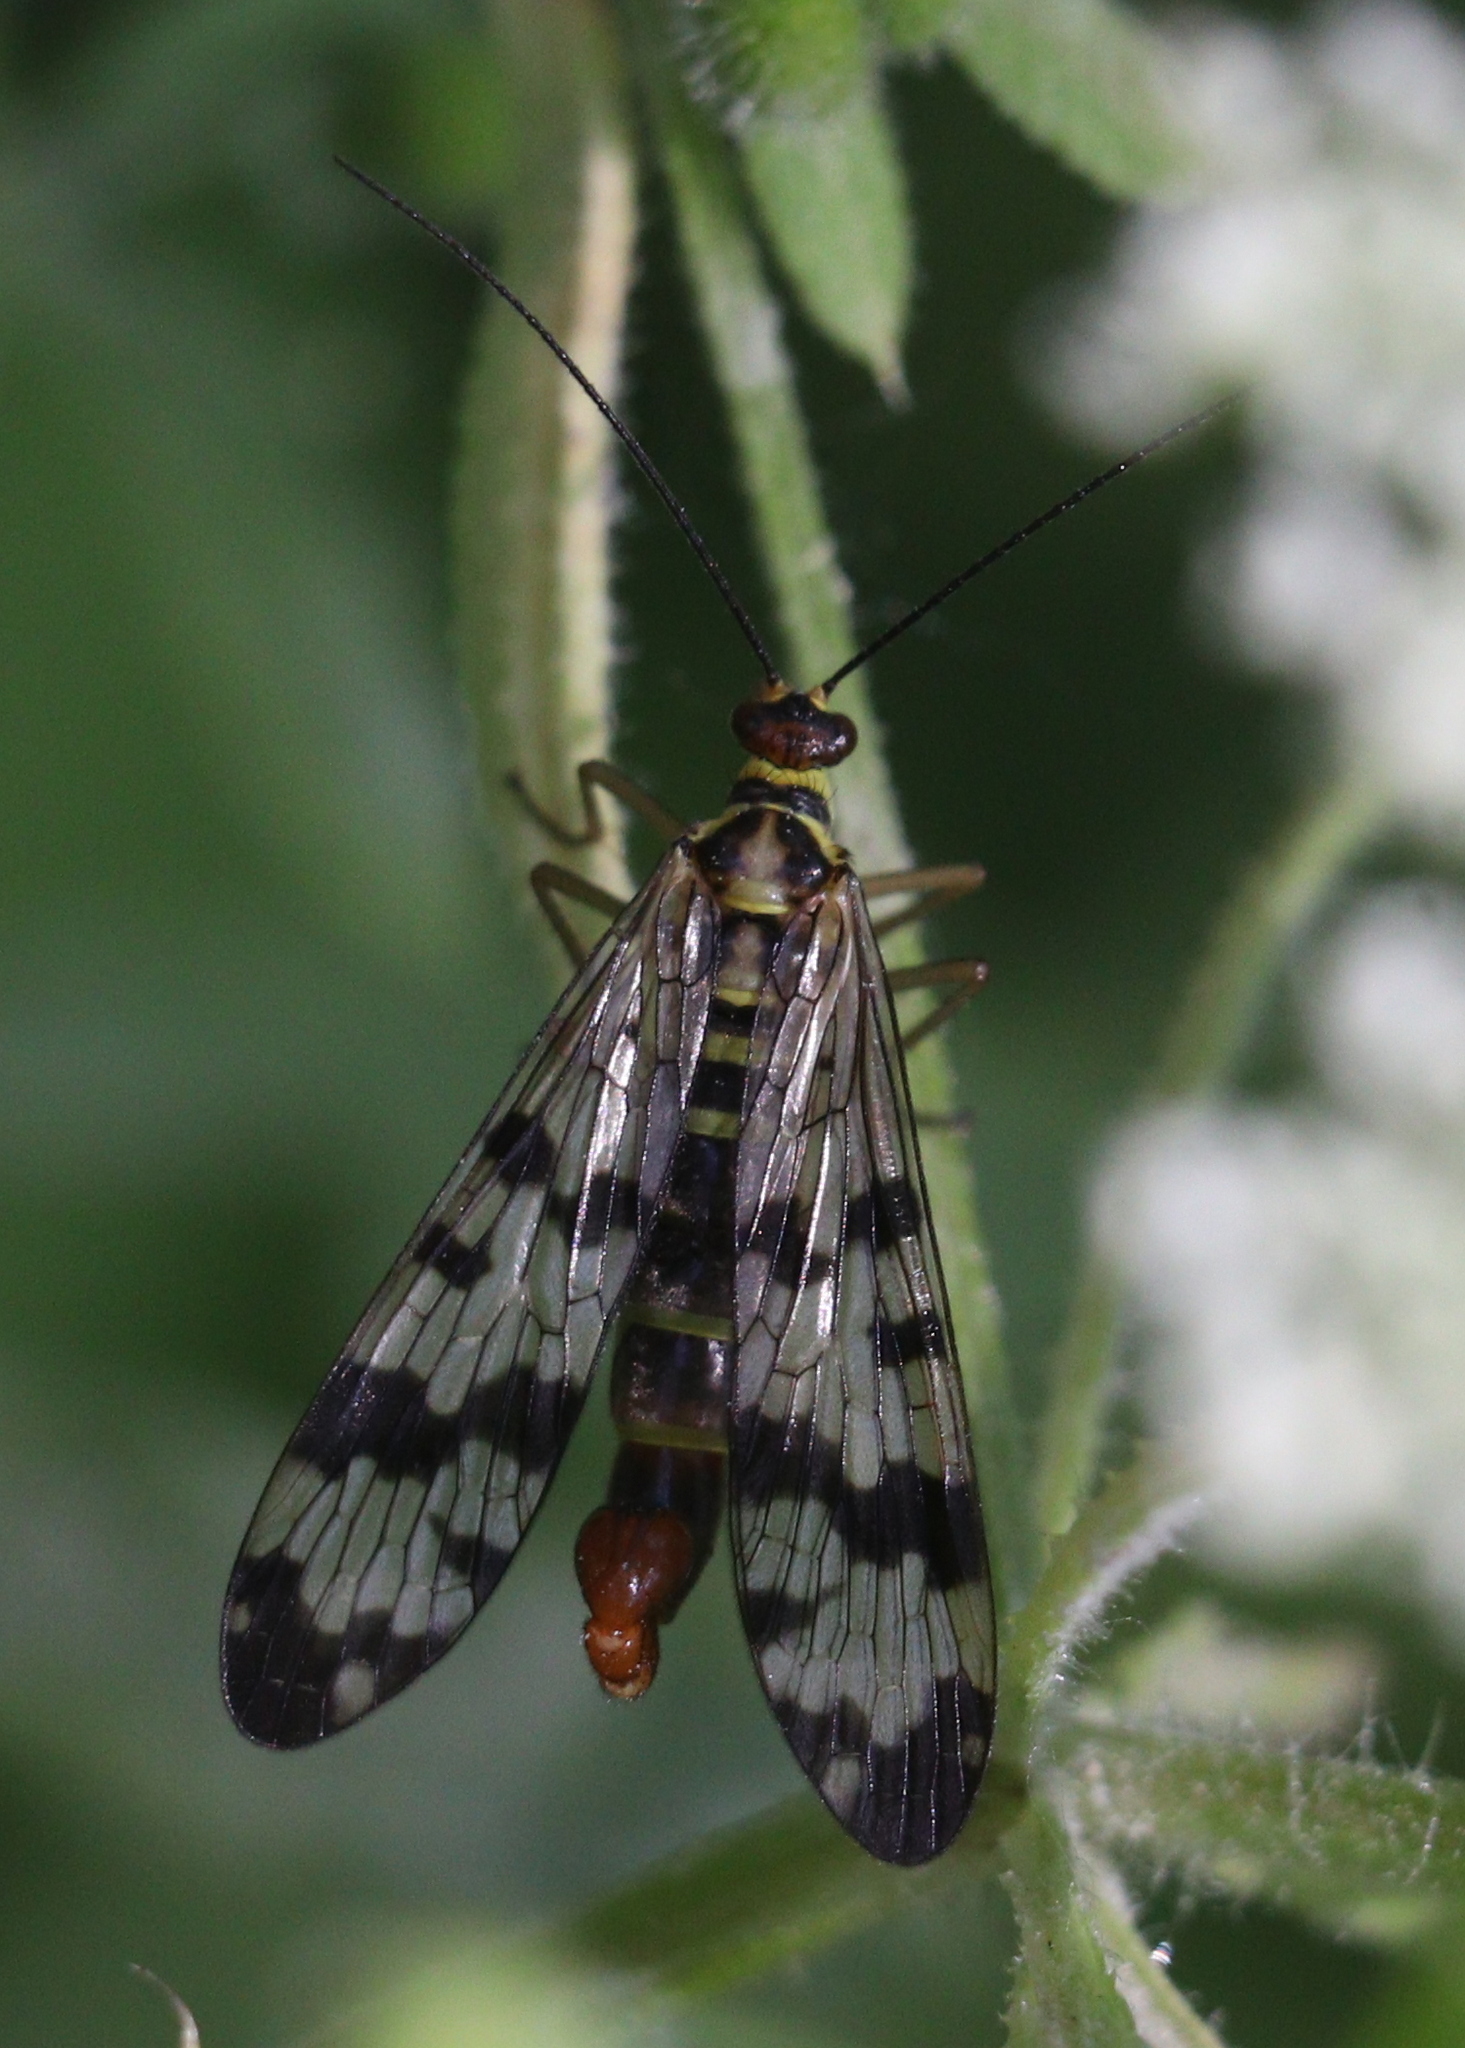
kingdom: Animalia
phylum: Arthropoda
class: Insecta
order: Mecoptera
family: Panorpidae
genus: Panorpa
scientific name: Panorpa communis
